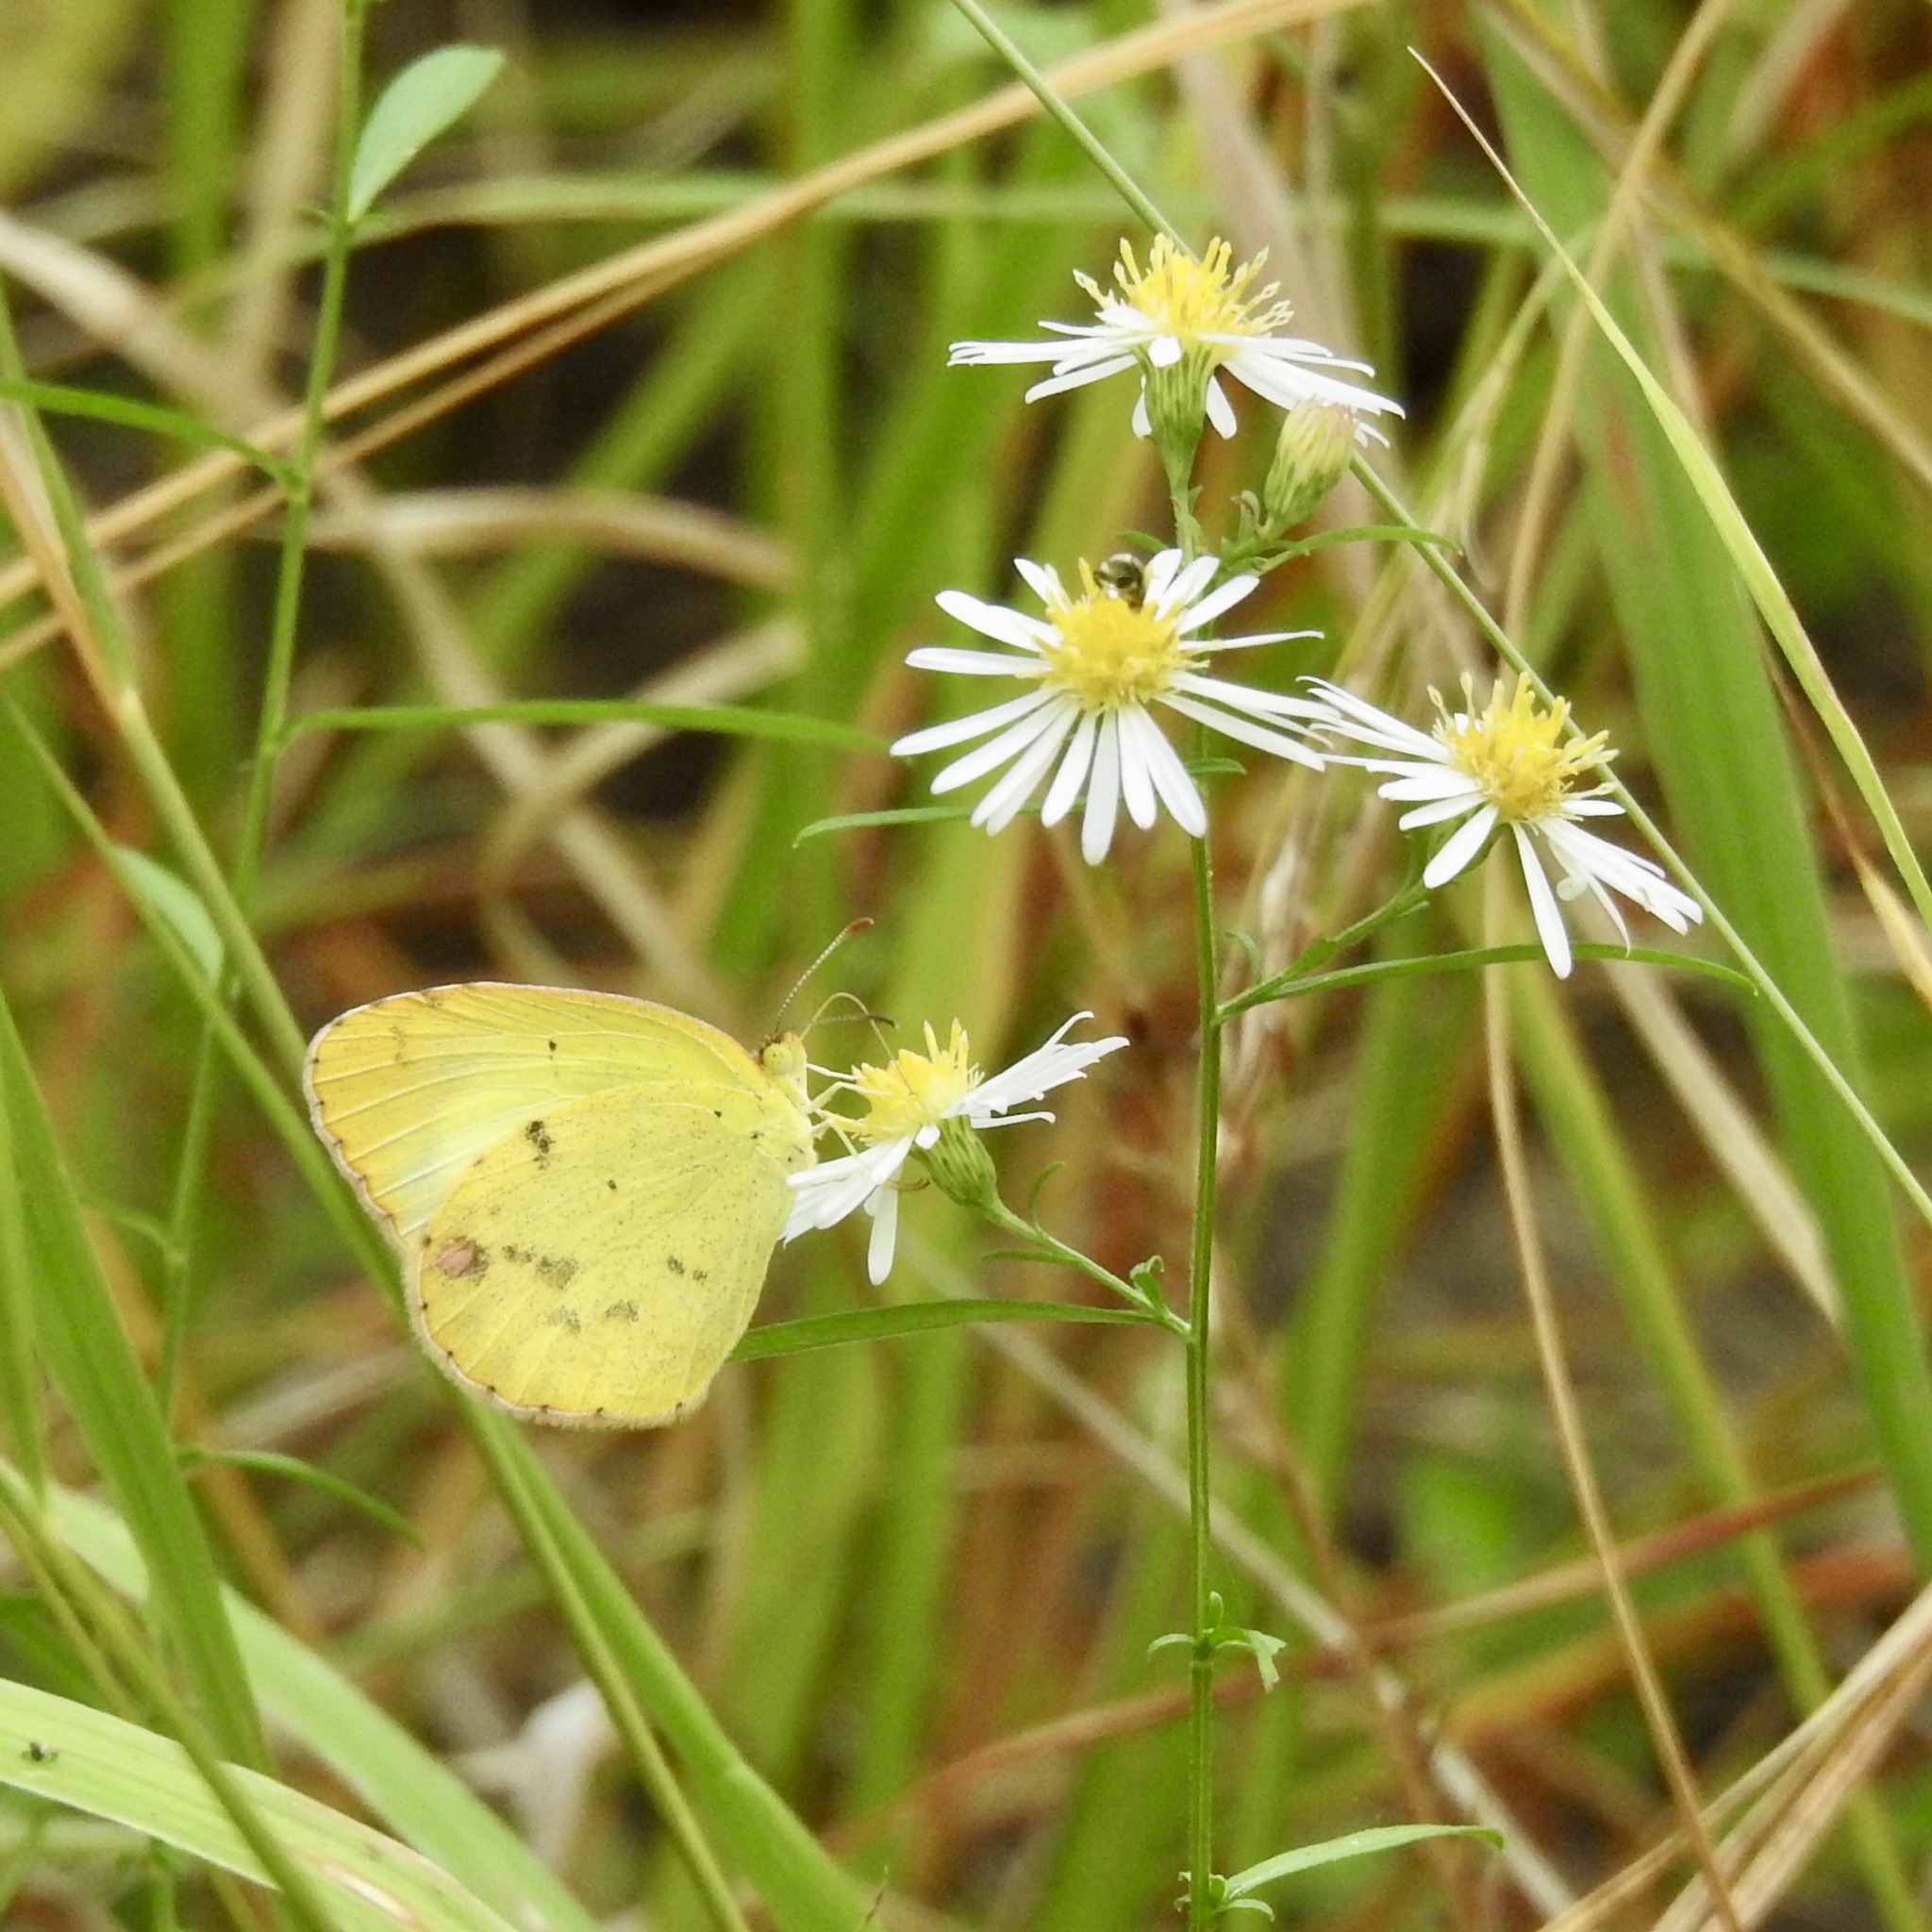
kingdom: Animalia
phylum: Arthropoda
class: Insecta
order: Lepidoptera
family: Pieridae
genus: Pyrisitia
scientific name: Pyrisitia lisa
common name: Little yellow
